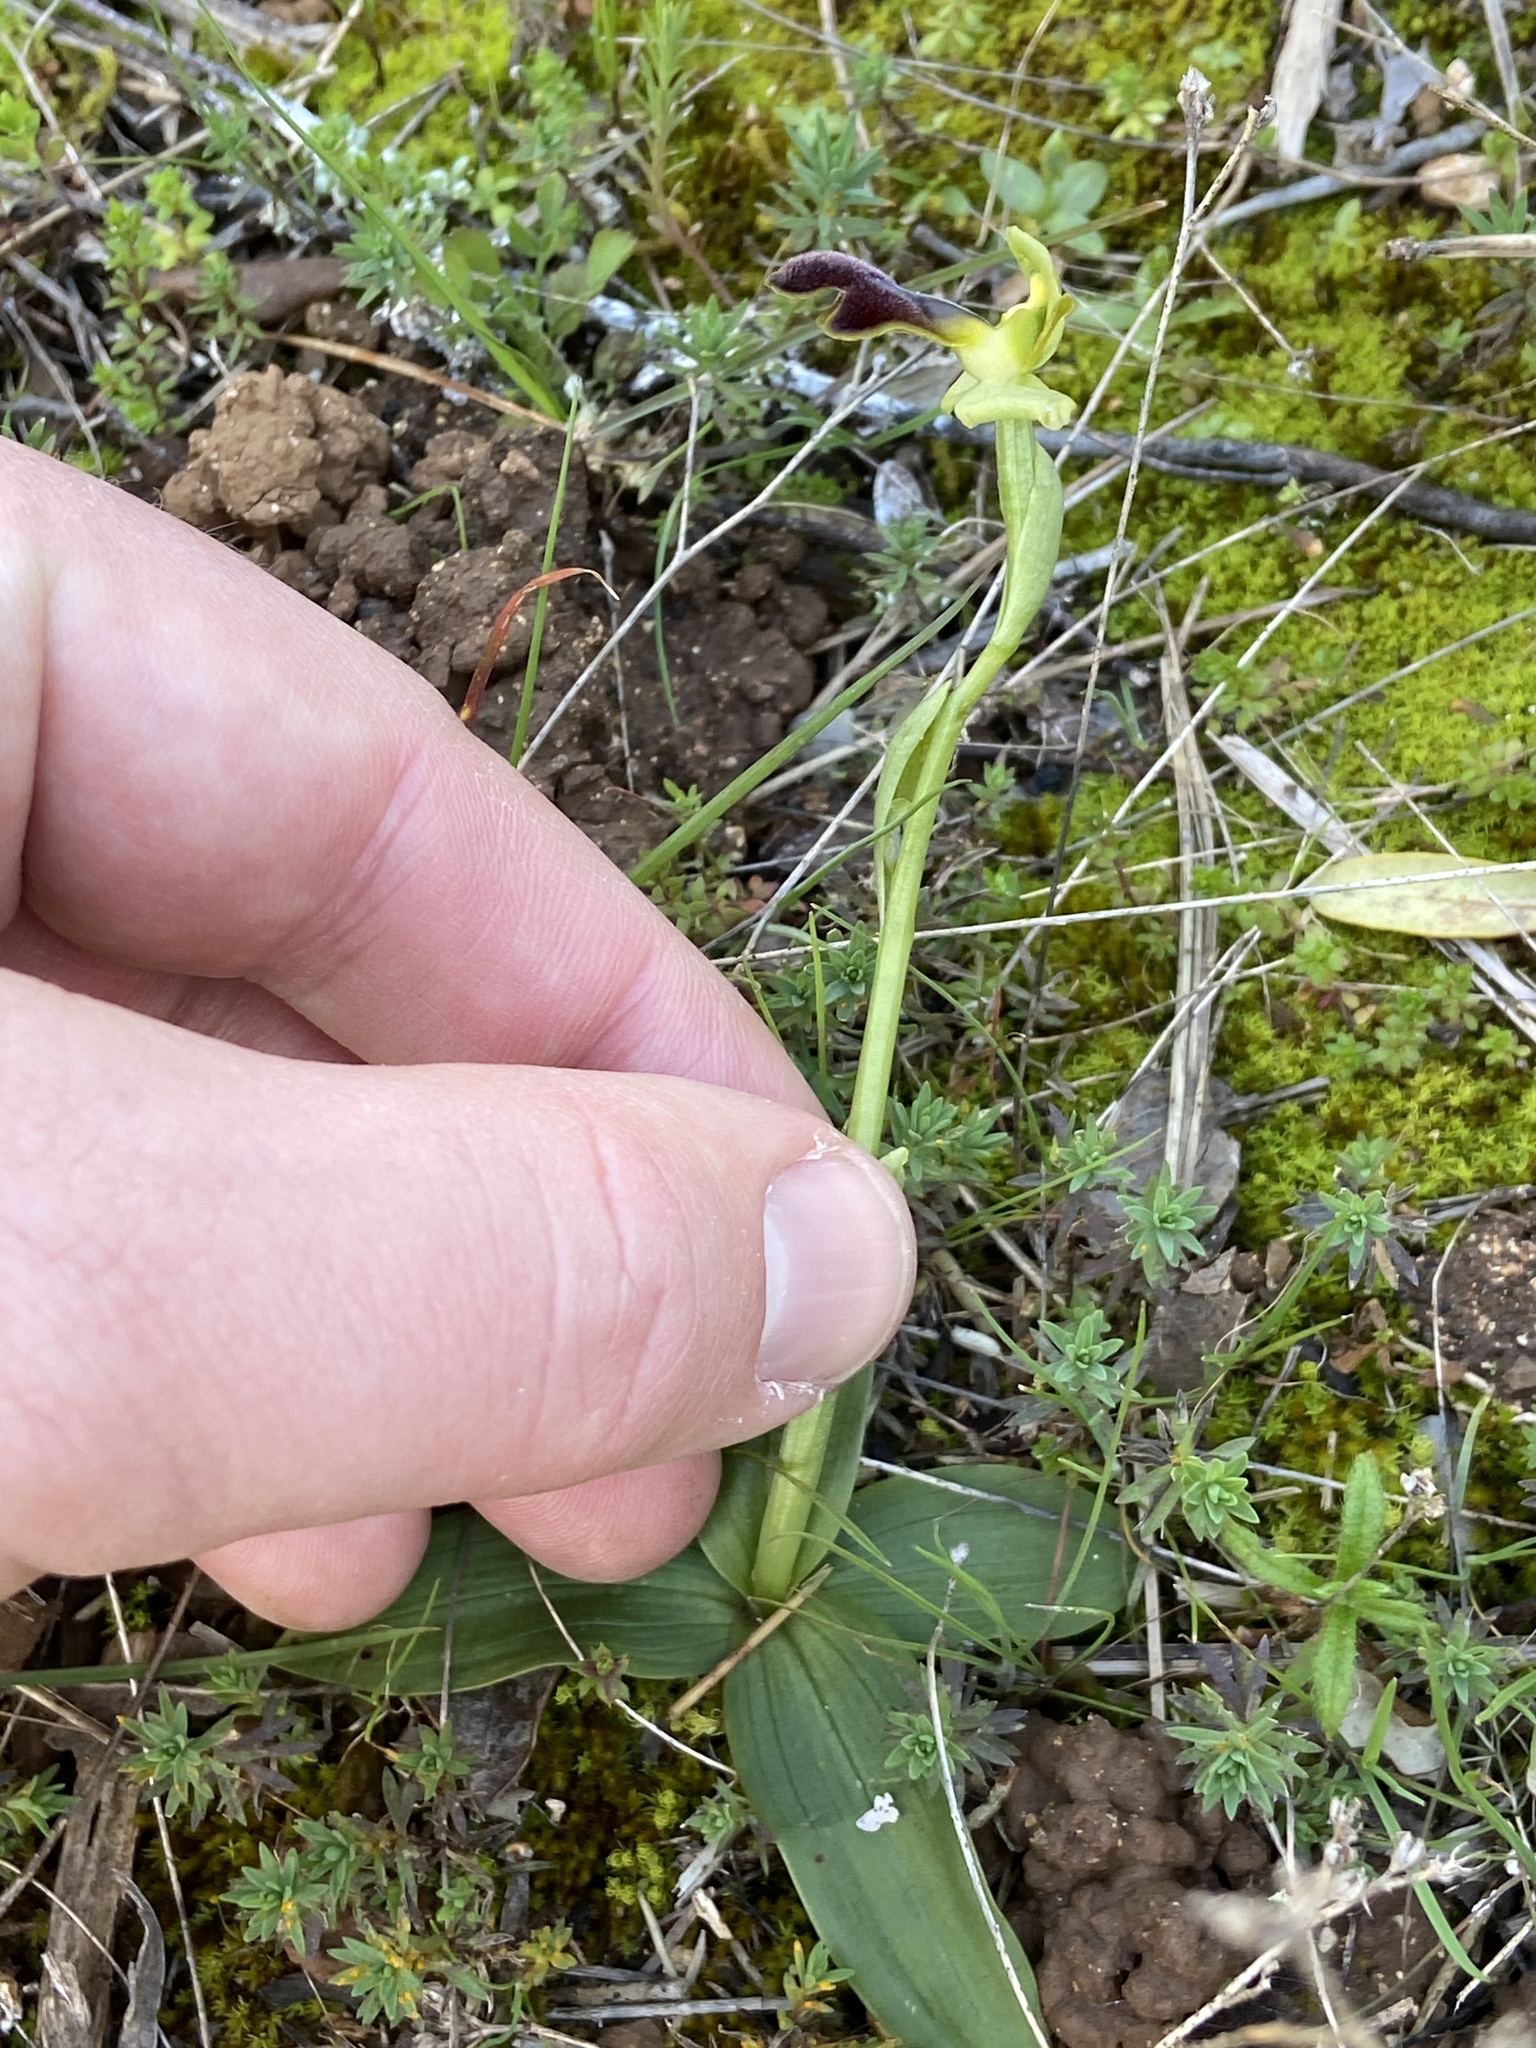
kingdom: Plantae
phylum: Tracheophyta
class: Liliopsida
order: Asparagales
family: Orchidaceae
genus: Ophrys
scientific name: Ophrys fusca
